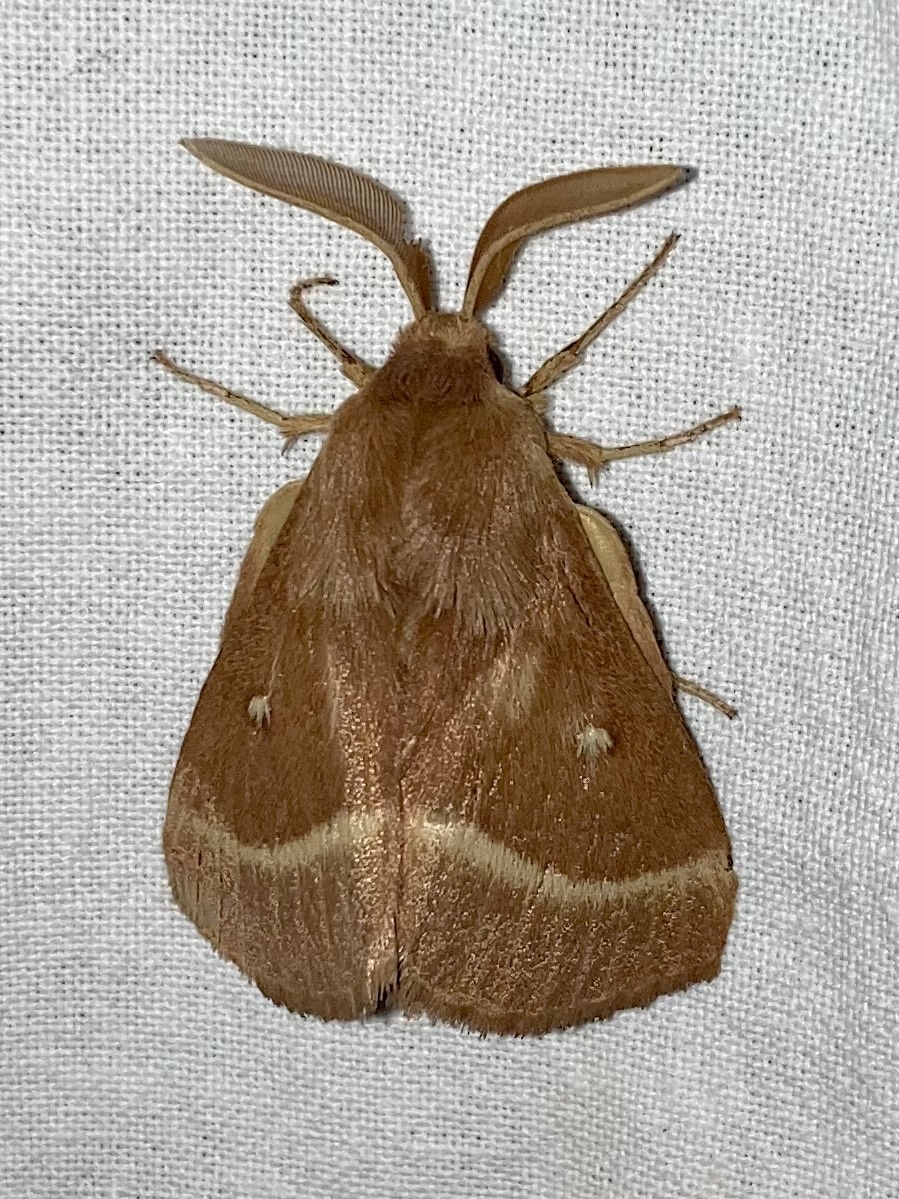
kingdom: Animalia
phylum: Arthropoda
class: Insecta
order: Lepidoptera
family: Lasiocampidae
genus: Lasiocampa
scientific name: Lasiocampa trifolii
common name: Grass eggar
